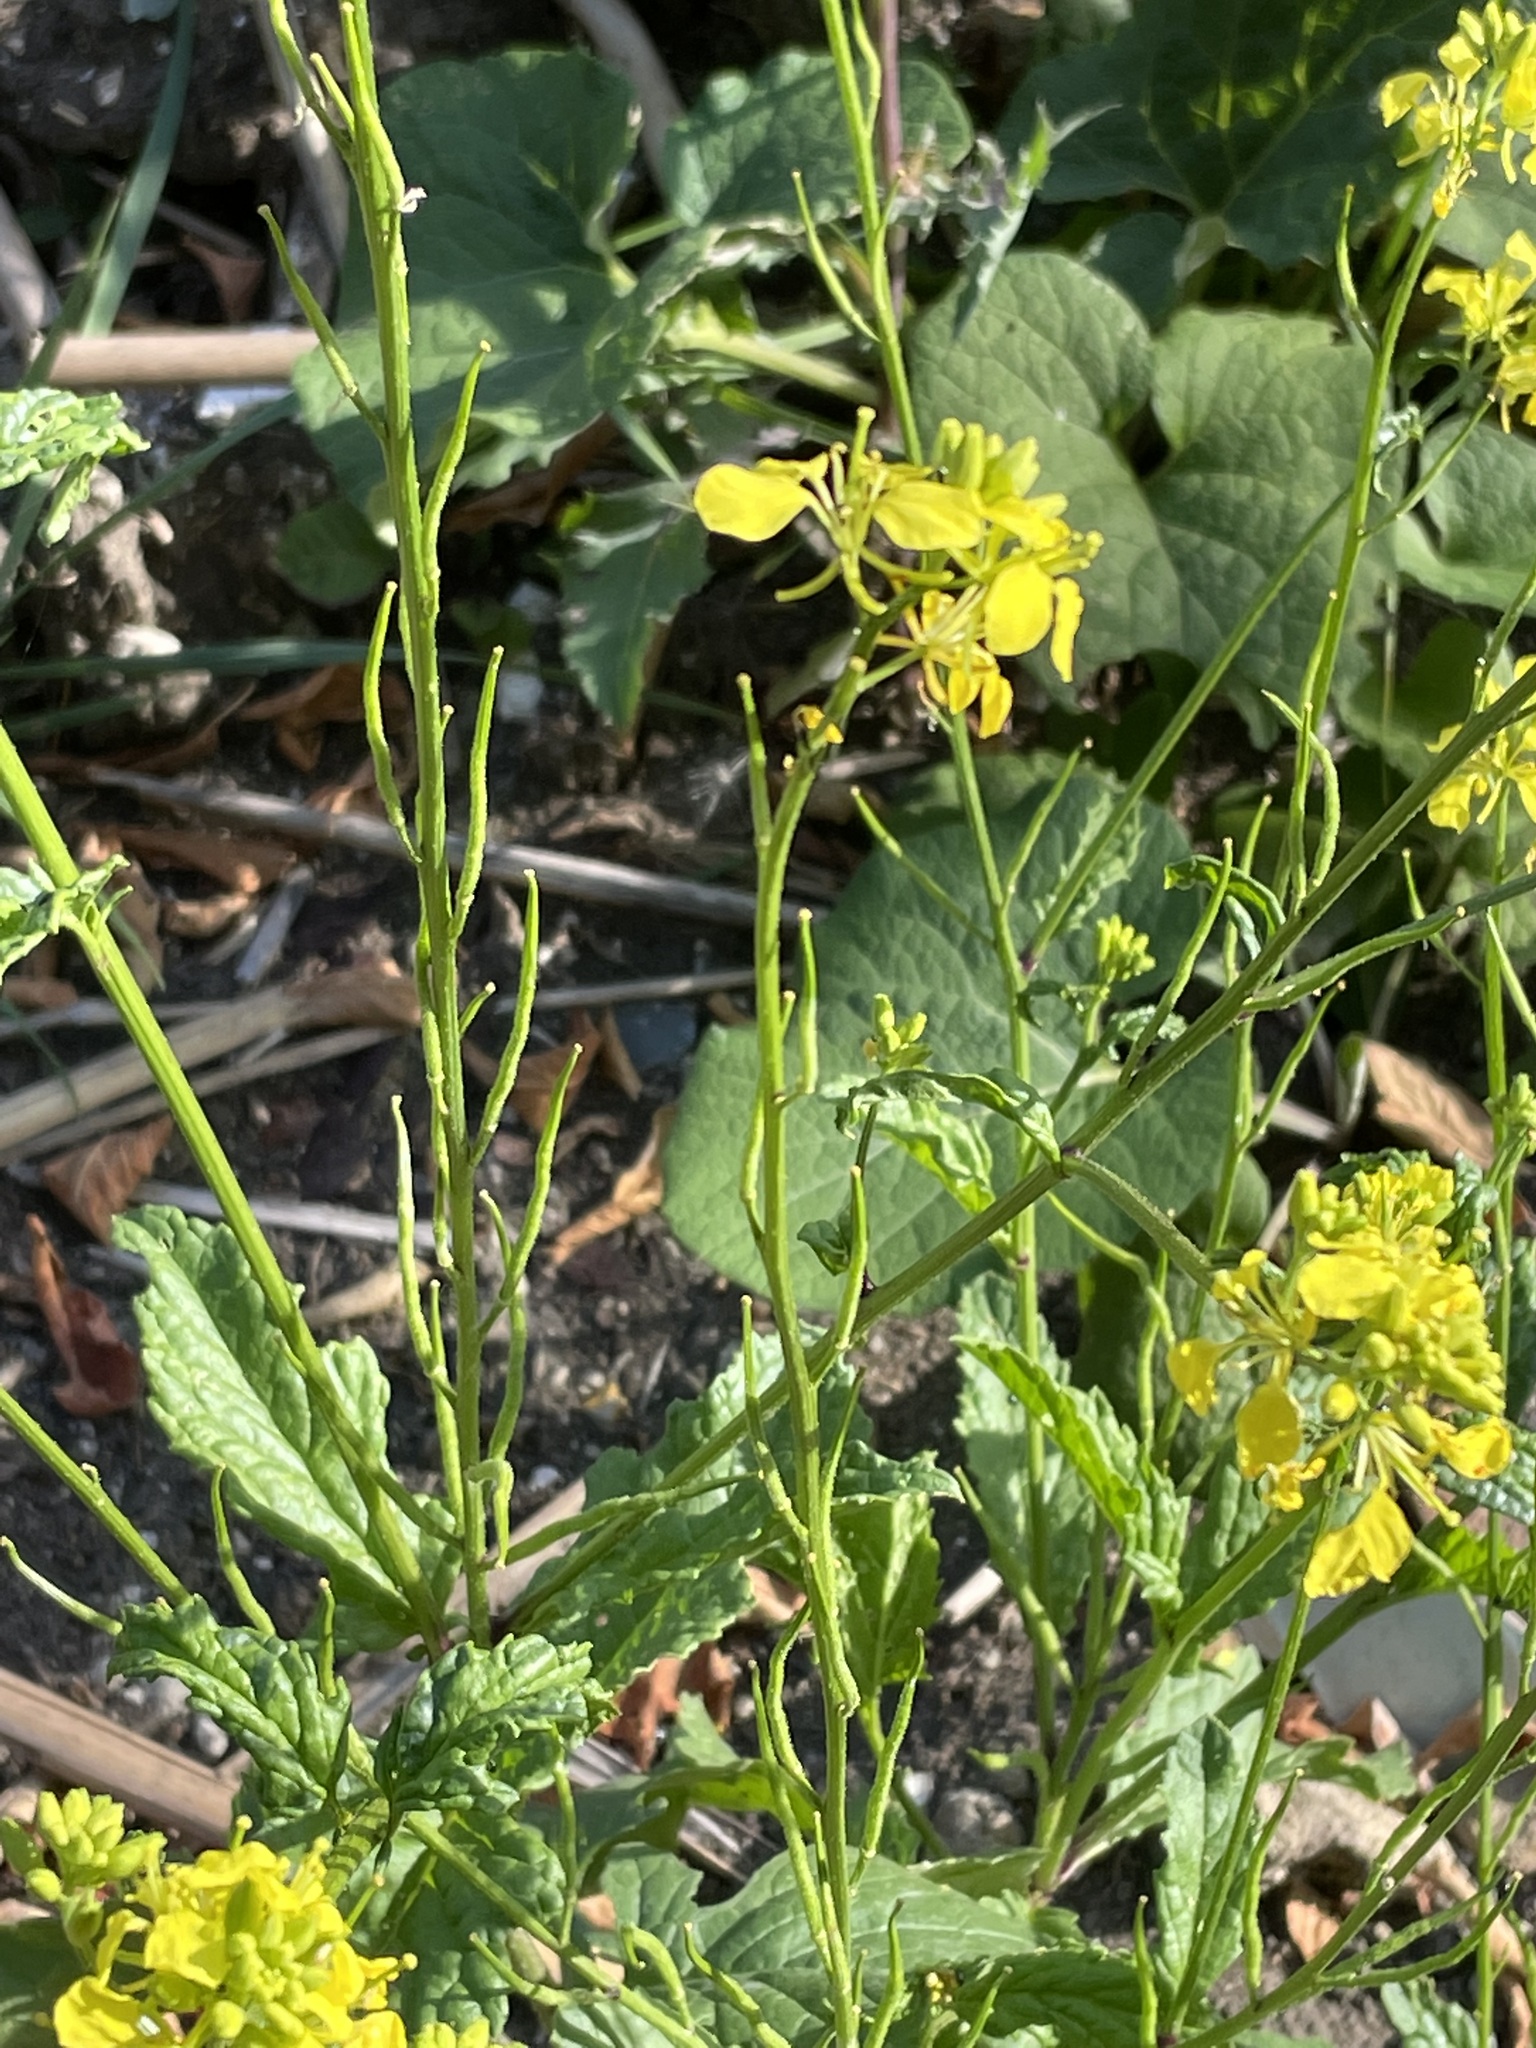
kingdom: Plantae
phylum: Tracheophyta
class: Magnoliopsida
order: Brassicales
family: Brassicaceae
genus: Sinapis
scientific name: Sinapis arvensis
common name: Charlock
